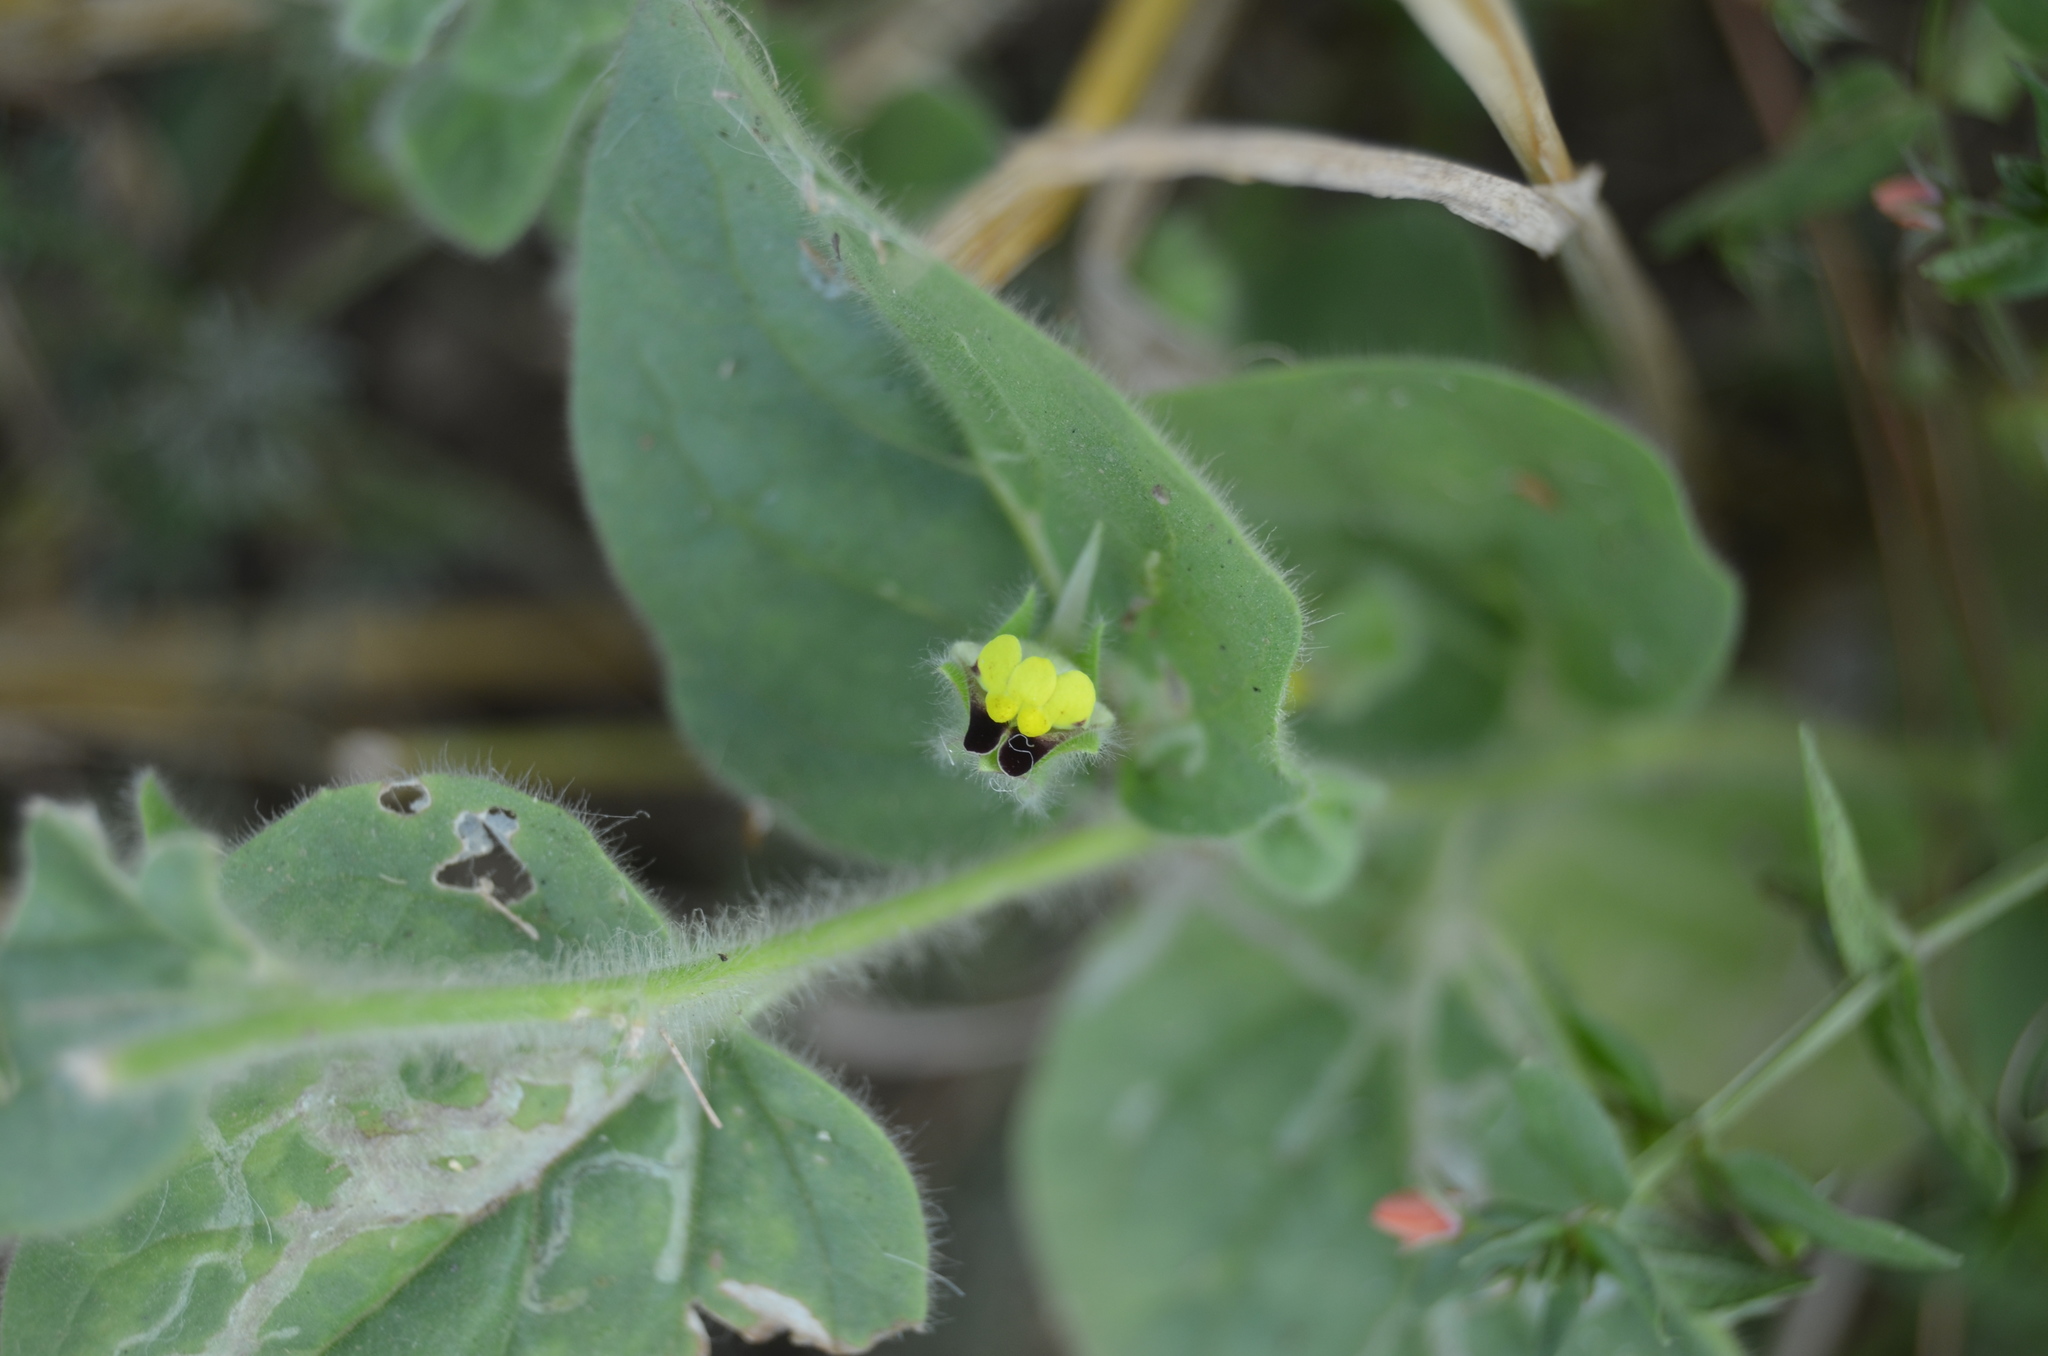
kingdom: Plantae
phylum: Tracheophyta
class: Magnoliopsida
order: Lamiales
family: Plantaginaceae
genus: Kickxia
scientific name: Kickxia elatine
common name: Sharp-leaved fluellen
